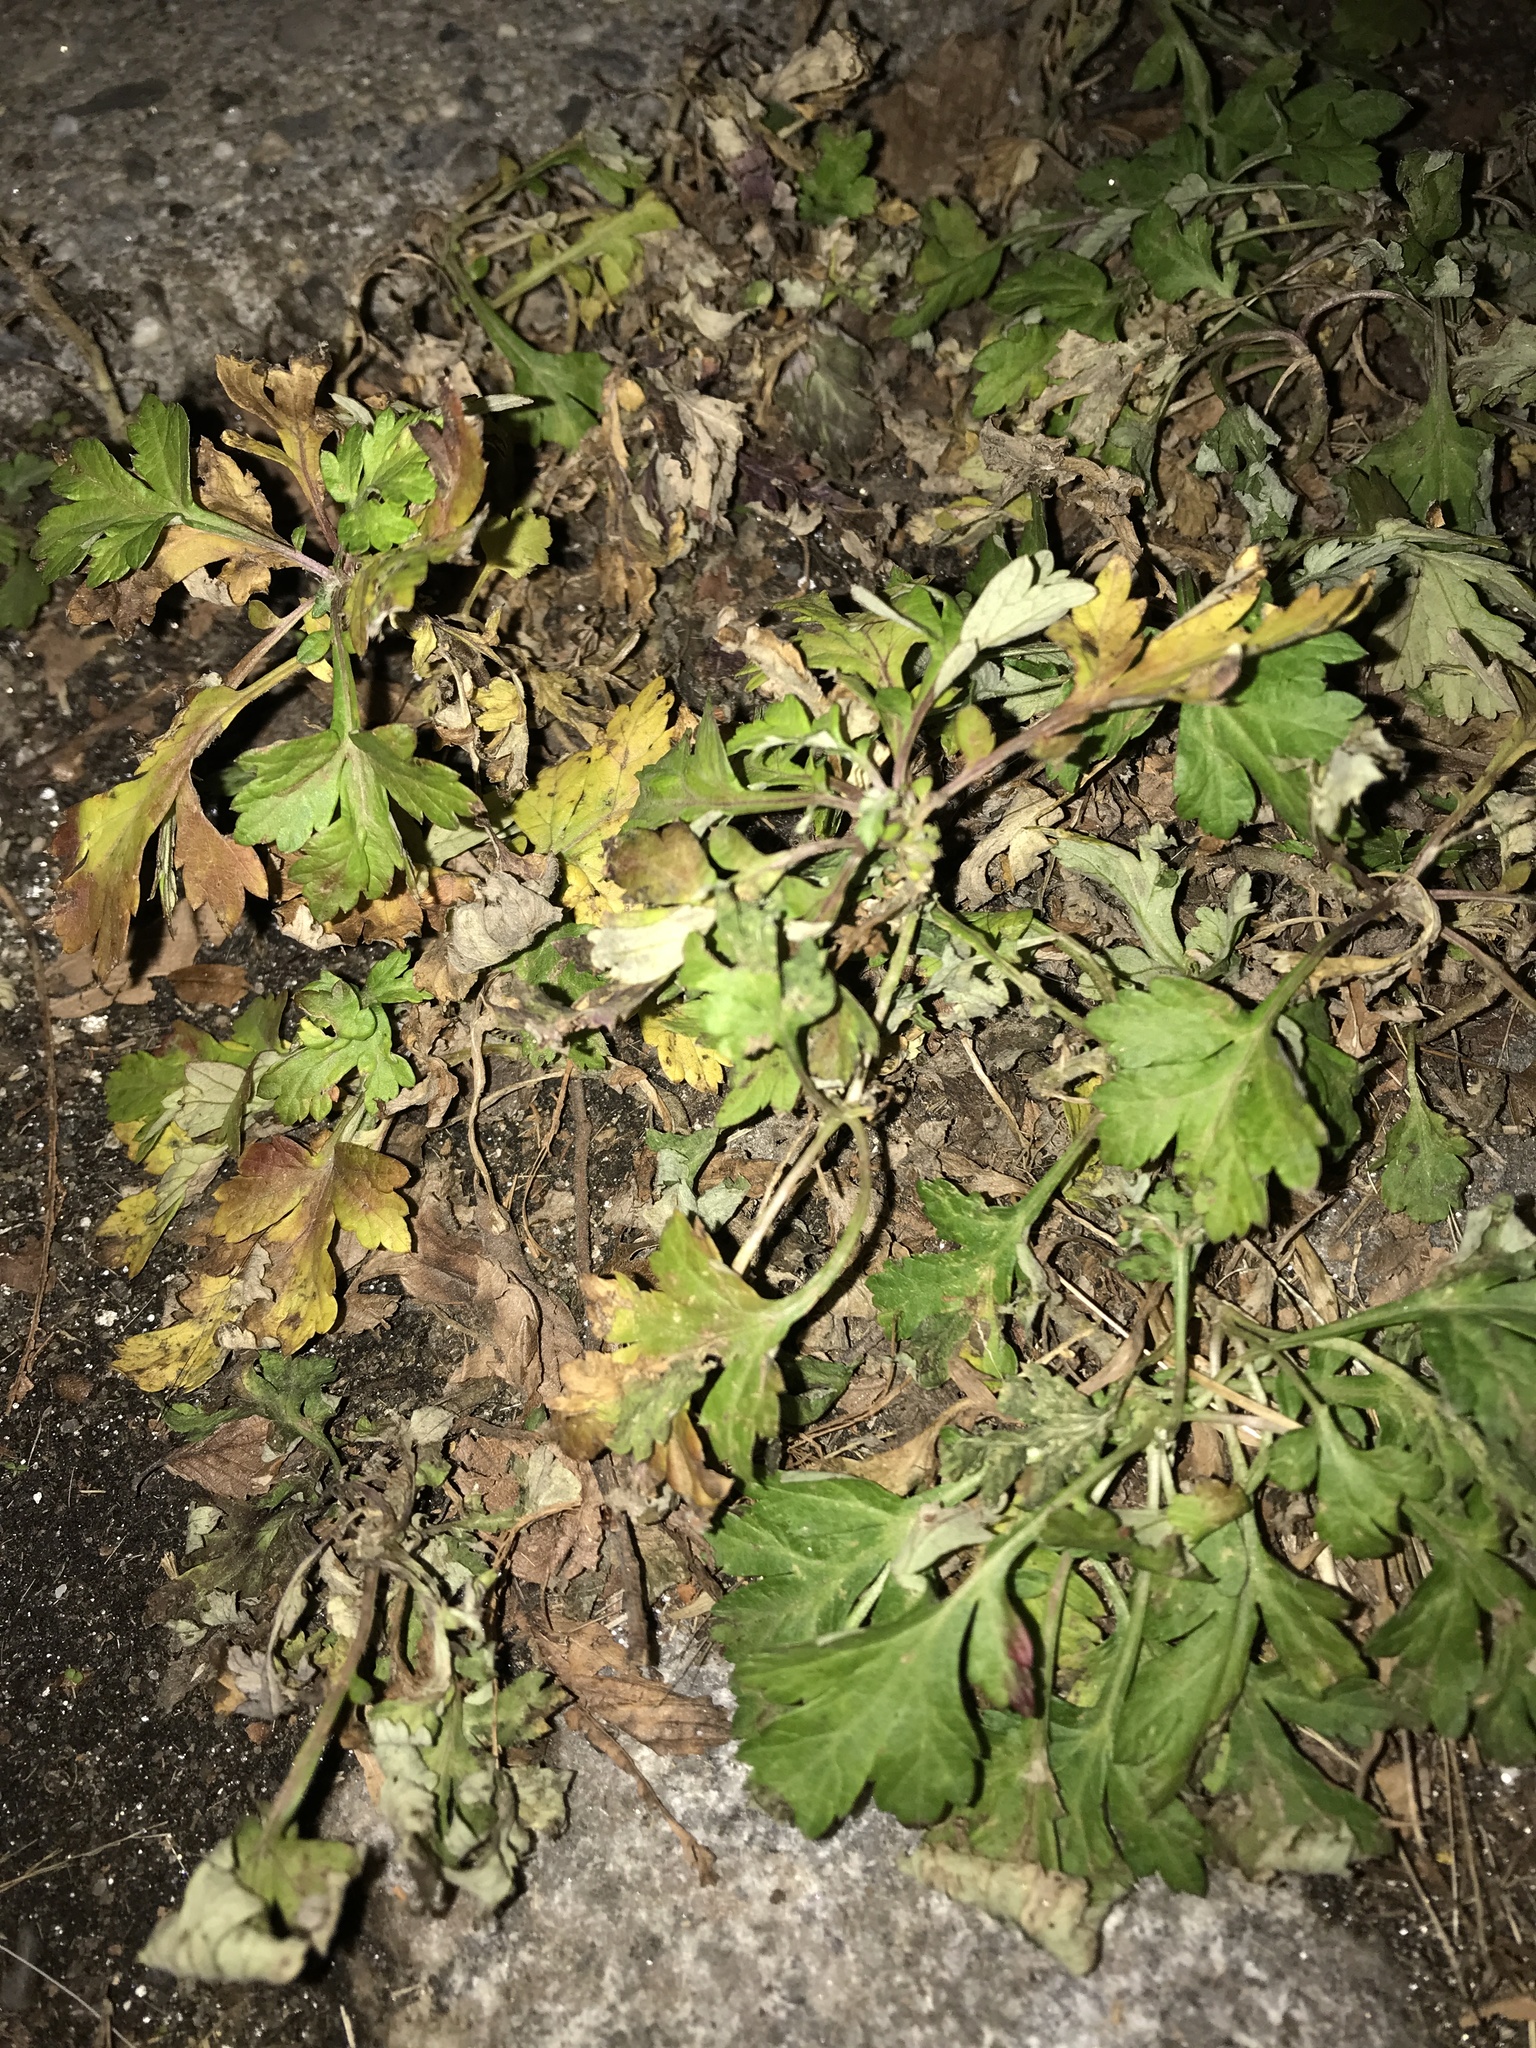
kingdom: Plantae
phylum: Tracheophyta
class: Magnoliopsida
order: Asterales
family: Asteraceae
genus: Artemisia
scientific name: Artemisia vulgaris
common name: Mugwort
